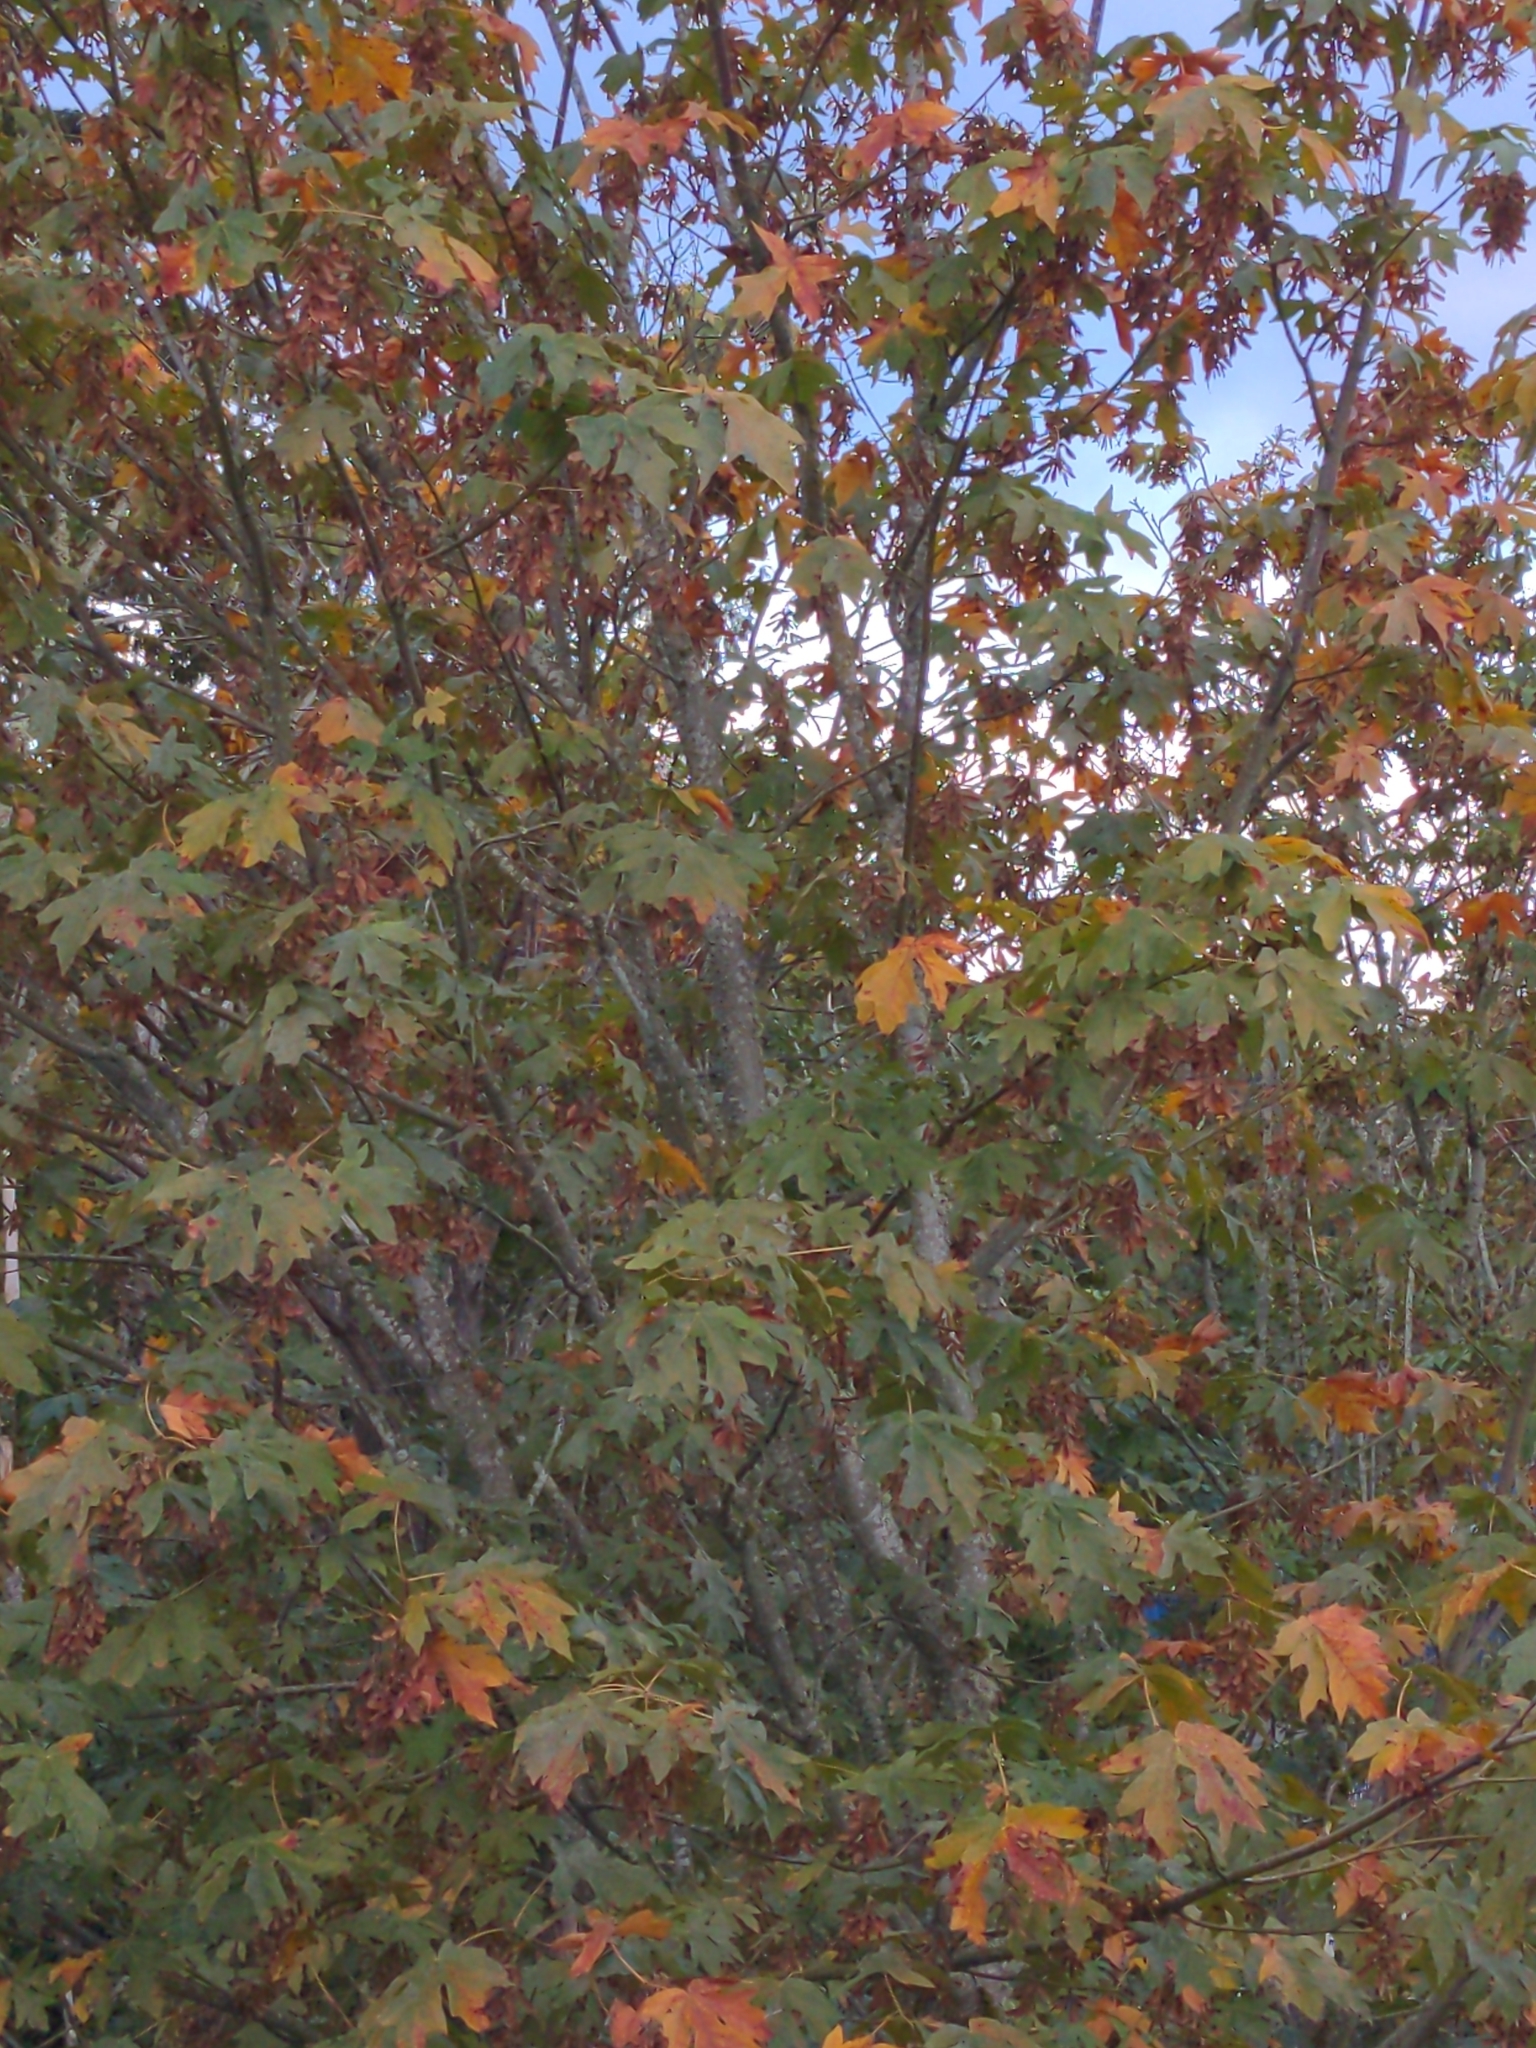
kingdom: Plantae
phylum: Tracheophyta
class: Magnoliopsida
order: Sapindales
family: Sapindaceae
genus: Acer
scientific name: Acer macrophyllum
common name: Oregon maple
